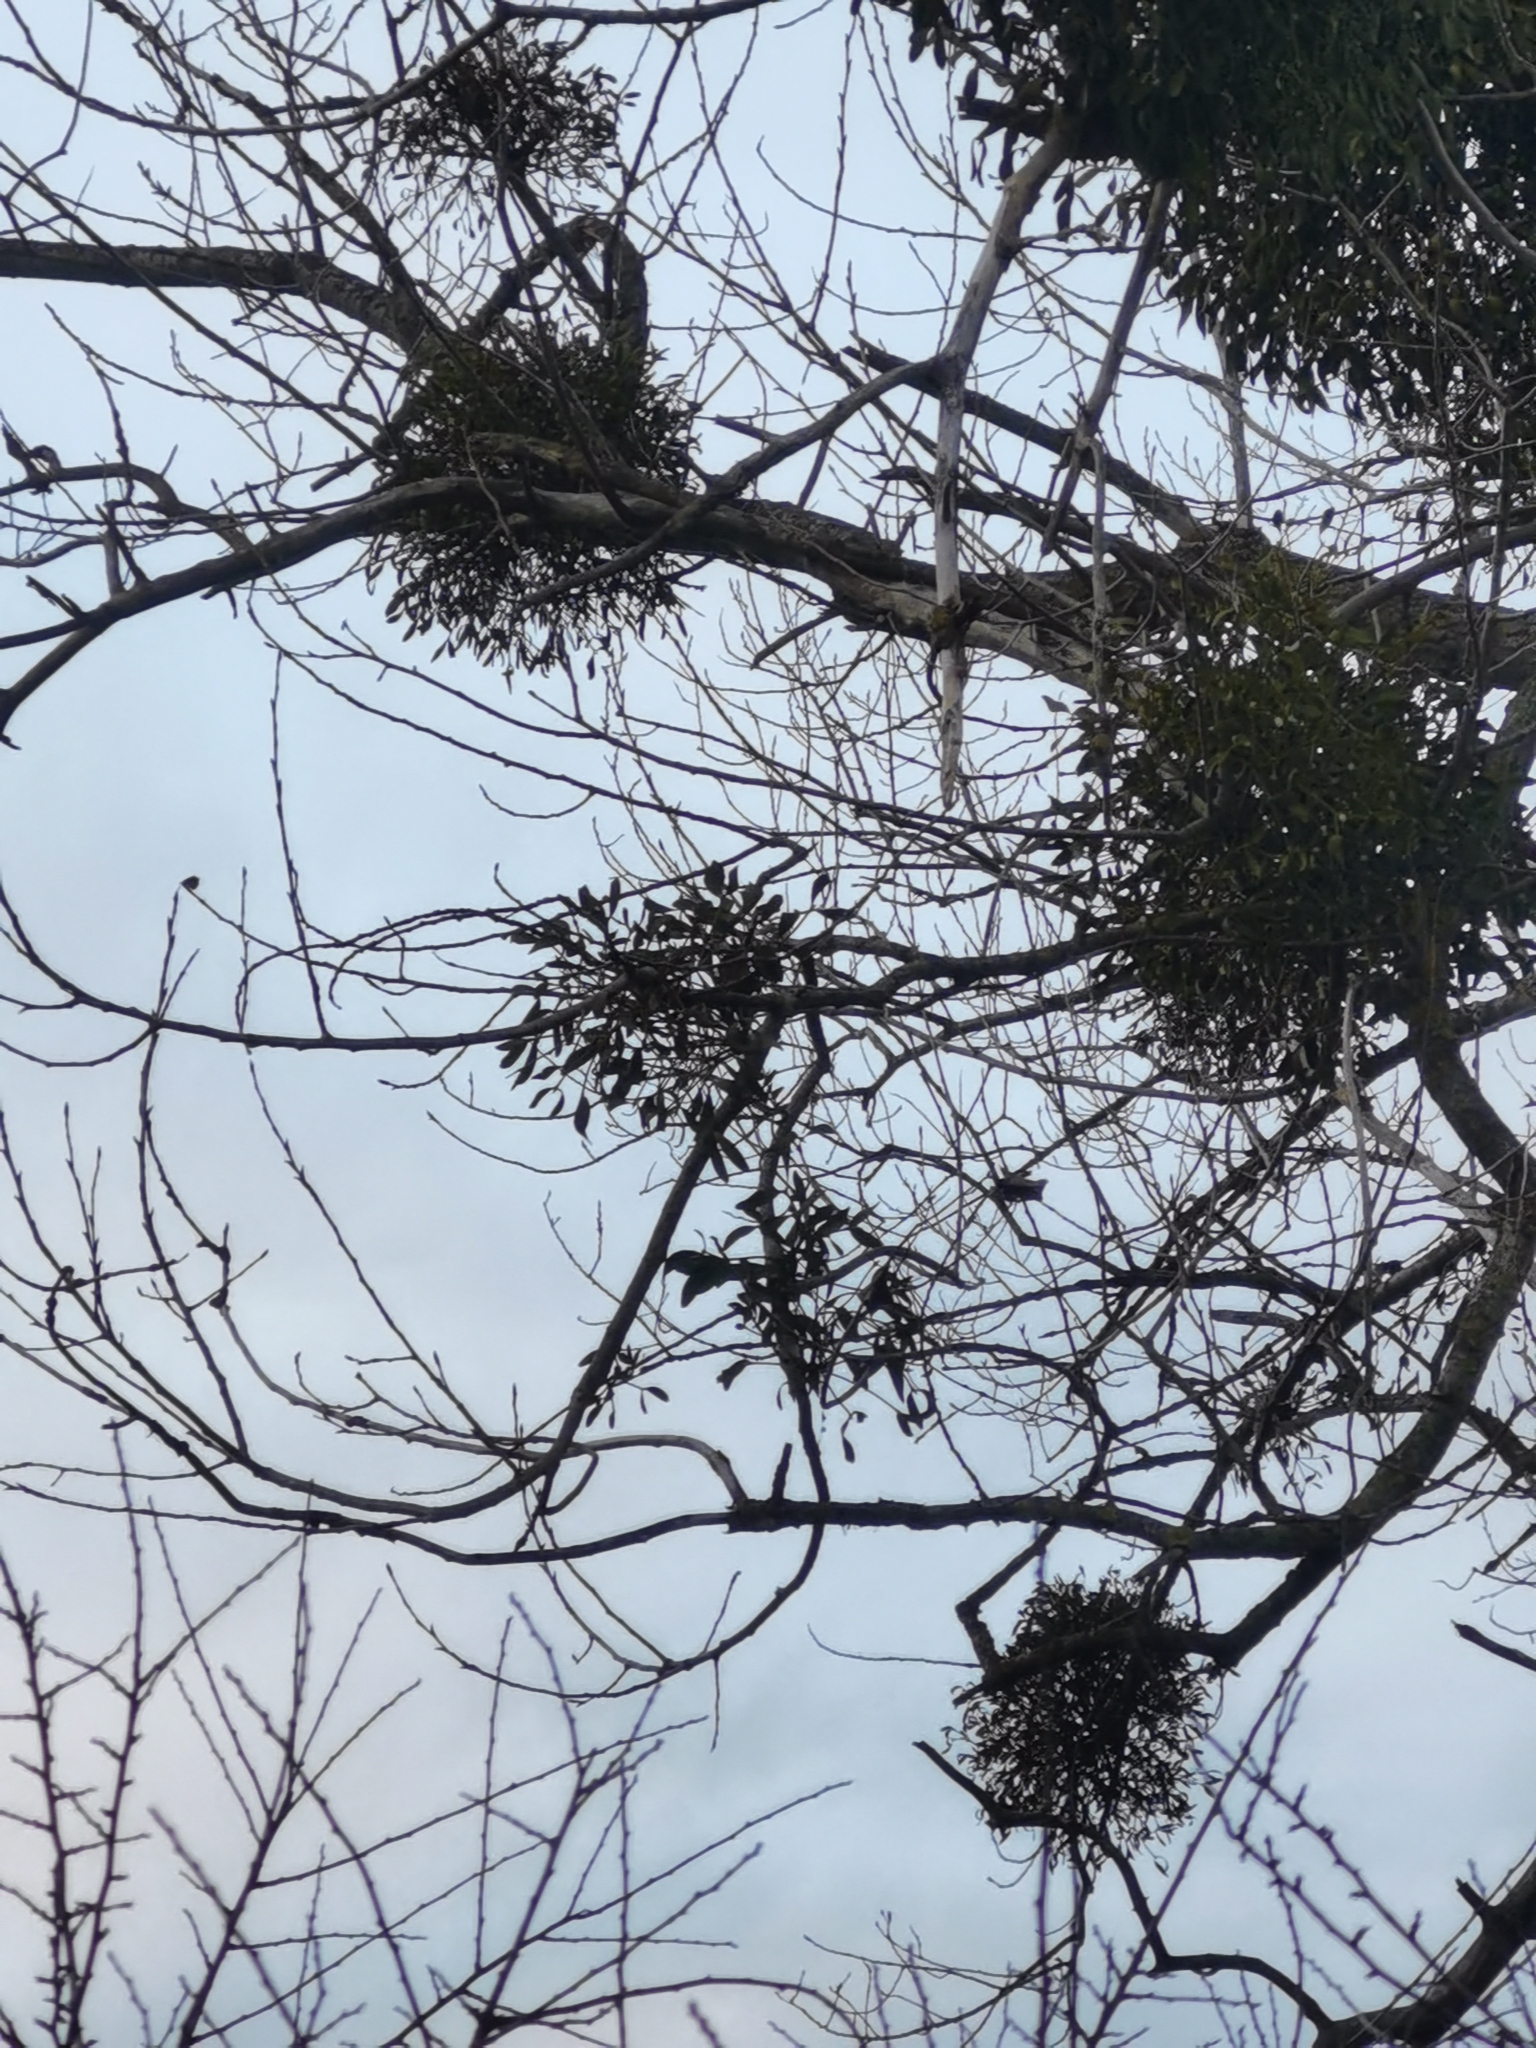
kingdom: Plantae
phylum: Tracheophyta
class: Magnoliopsida
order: Santalales
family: Viscaceae
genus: Viscum
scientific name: Viscum album
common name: Mistletoe
